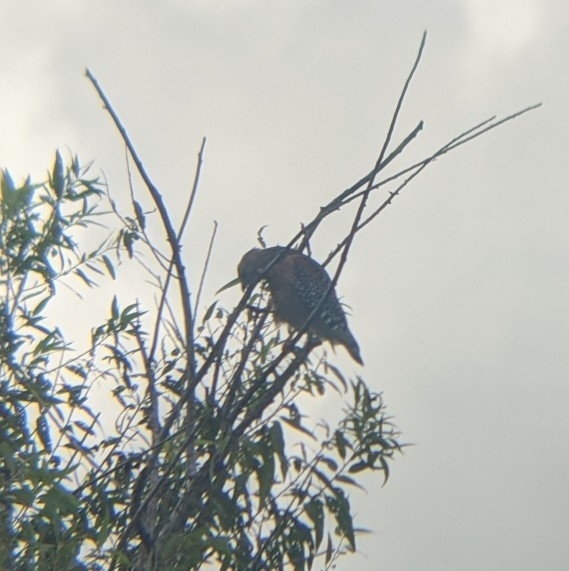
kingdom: Animalia
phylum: Chordata
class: Aves
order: Accipitriformes
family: Accipitridae
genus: Buteo
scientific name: Buteo lineatus
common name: Red-shouldered hawk
